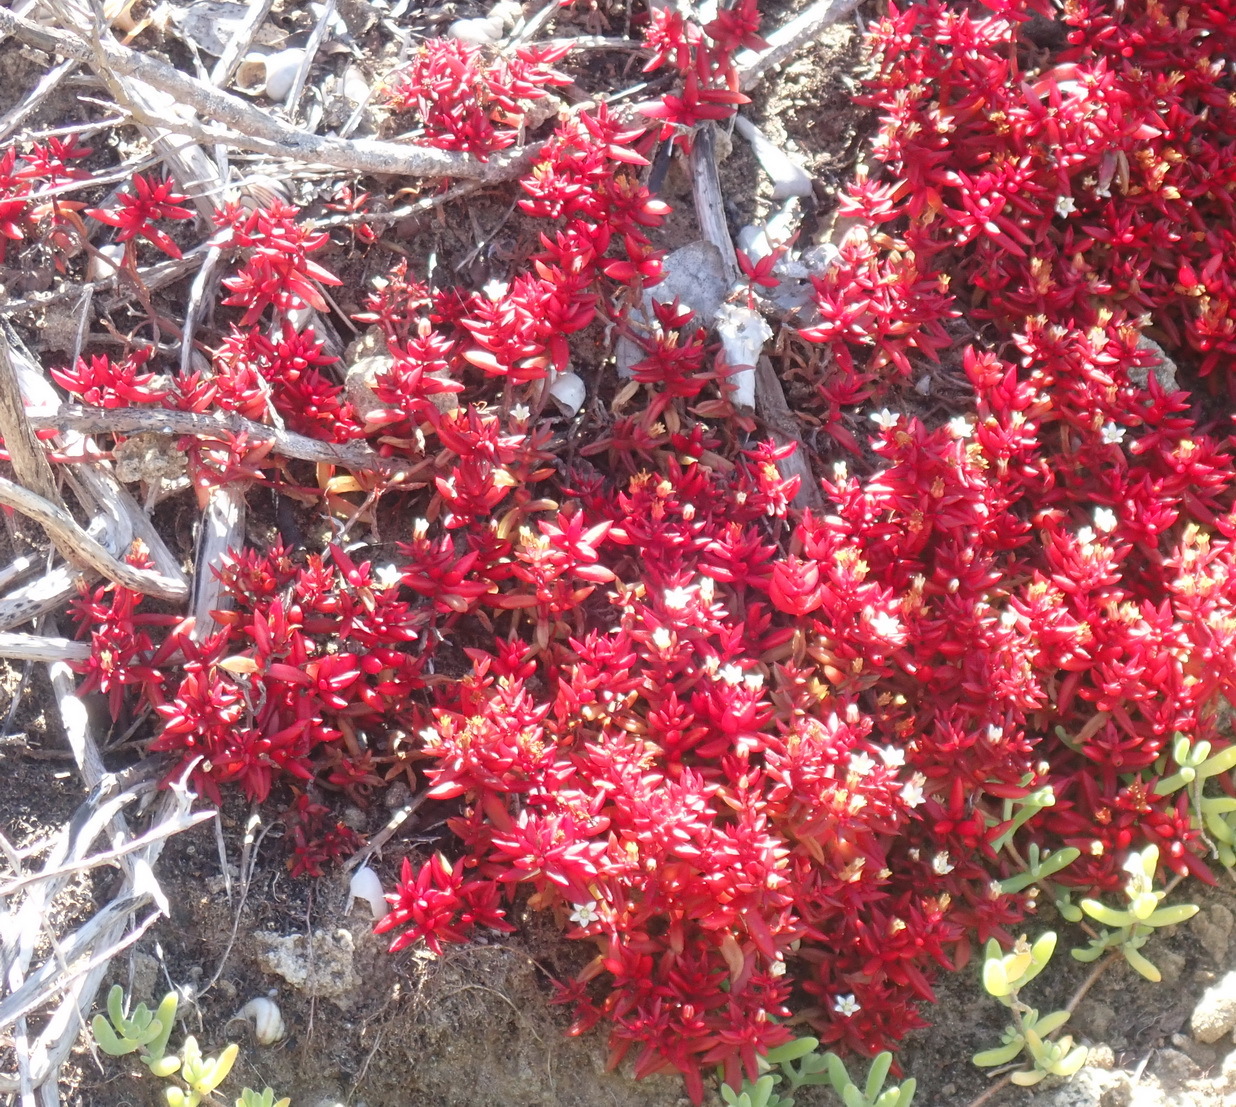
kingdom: Plantae
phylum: Tracheophyta
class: Magnoliopsida
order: Saxifragales
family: Crassulaceae
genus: Crassula
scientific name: Crassula expansa
